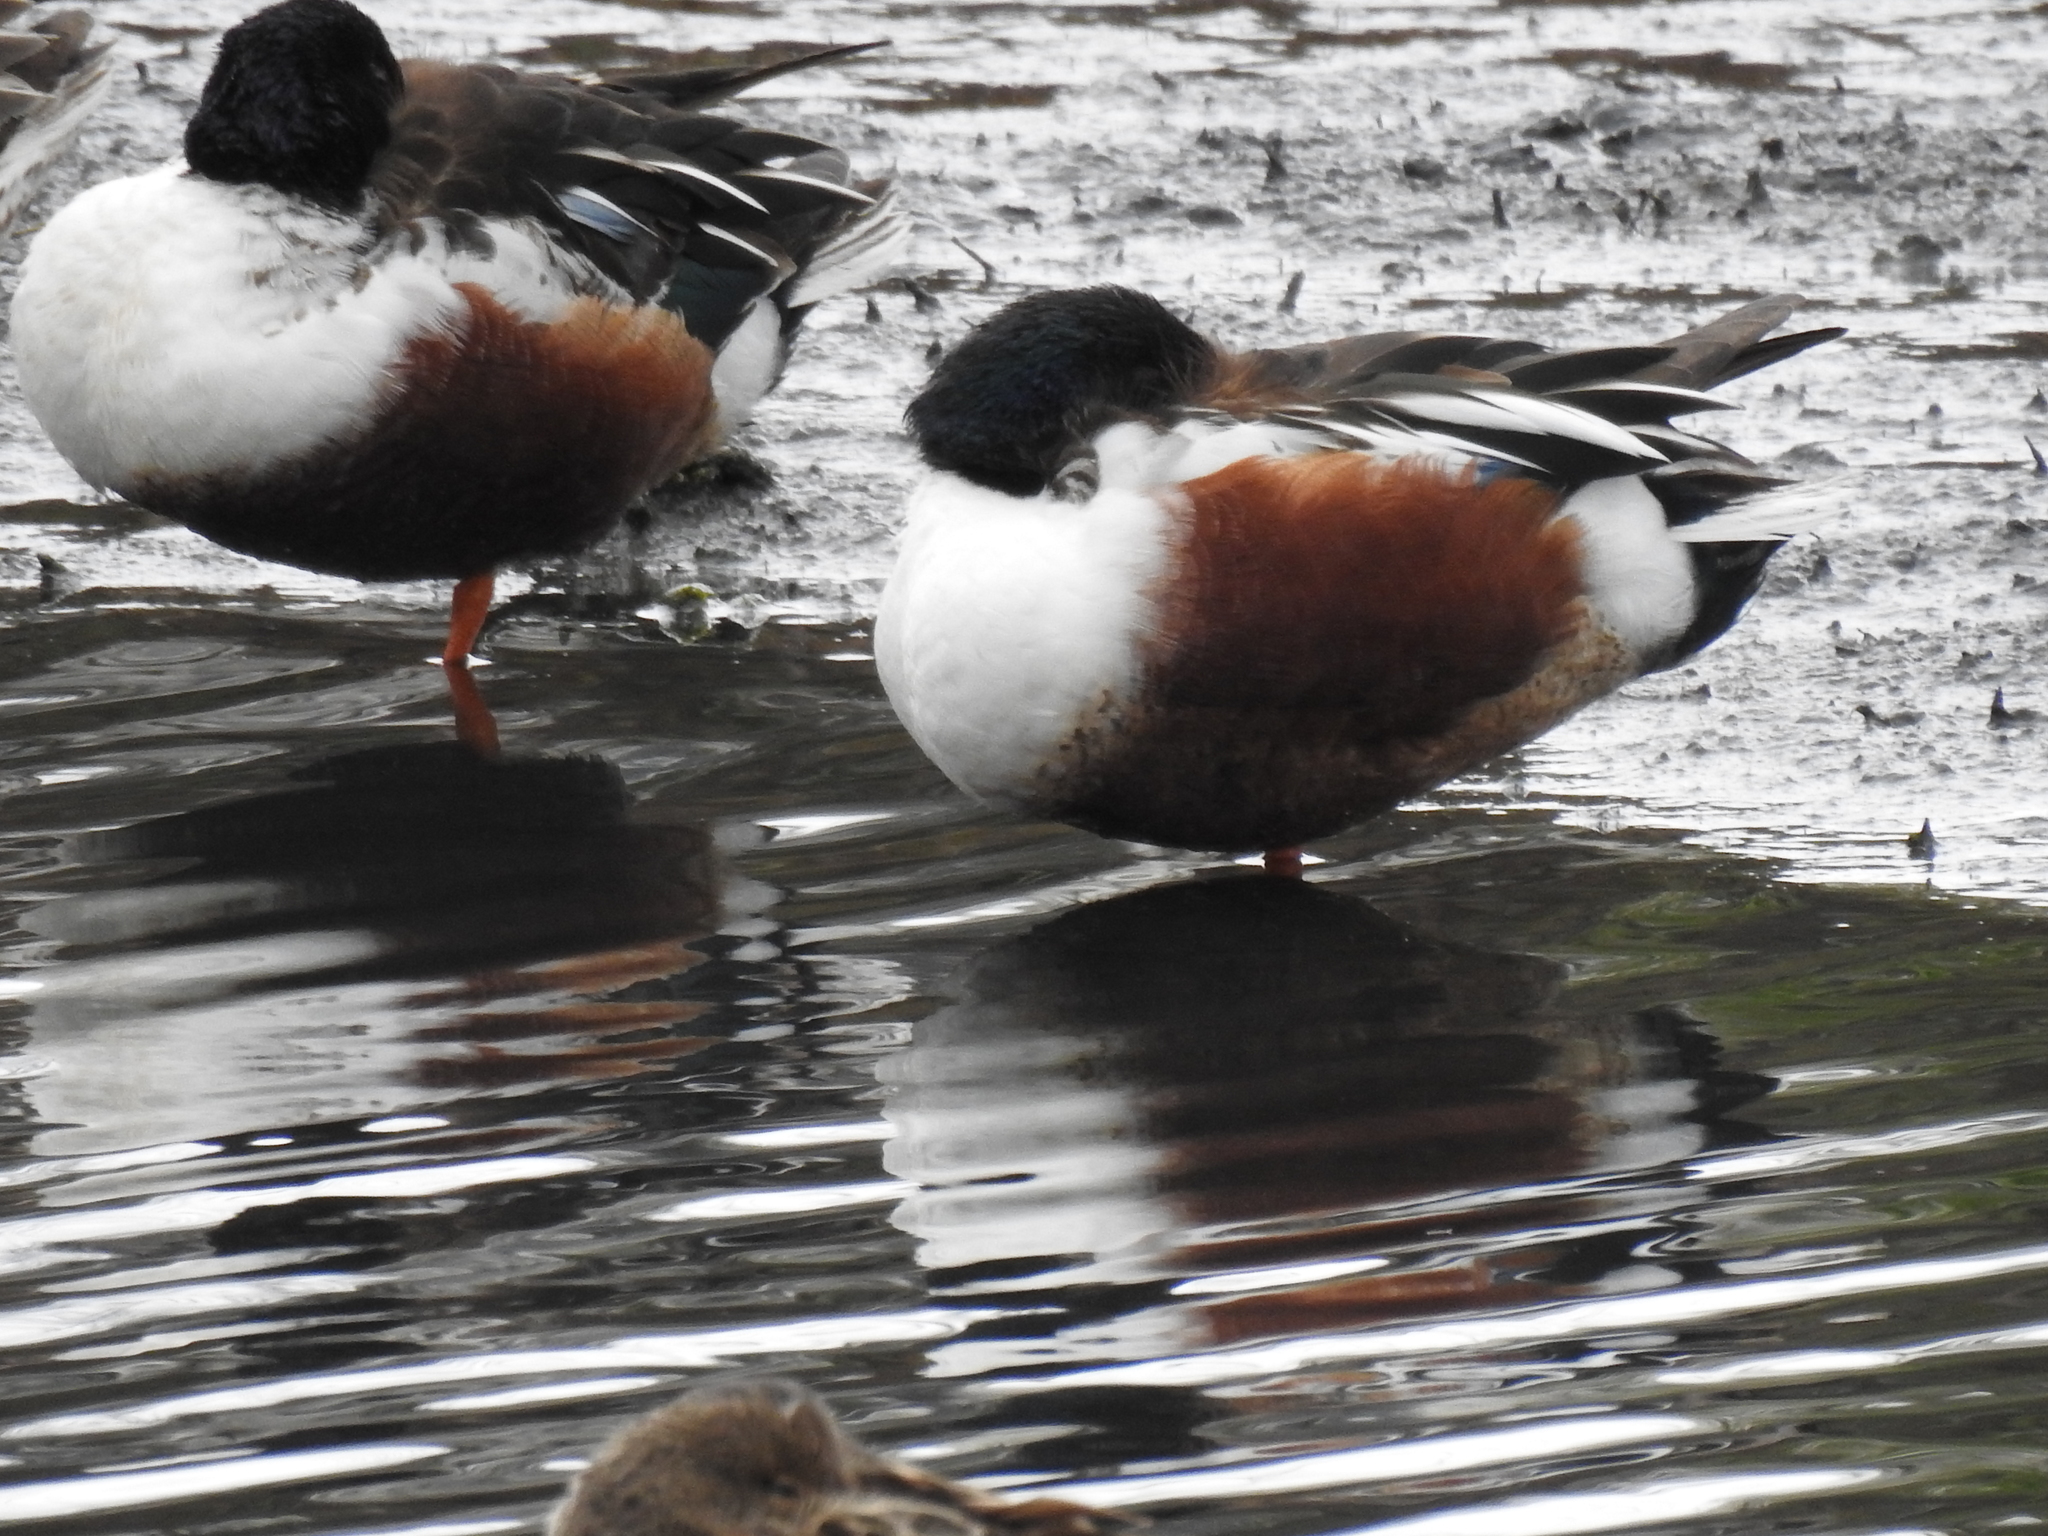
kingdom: Animalia
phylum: Chordata
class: Aves
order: Anseriformes
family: Anatidae
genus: Spatula
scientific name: Spatula clypeata
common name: Northern shoveler
